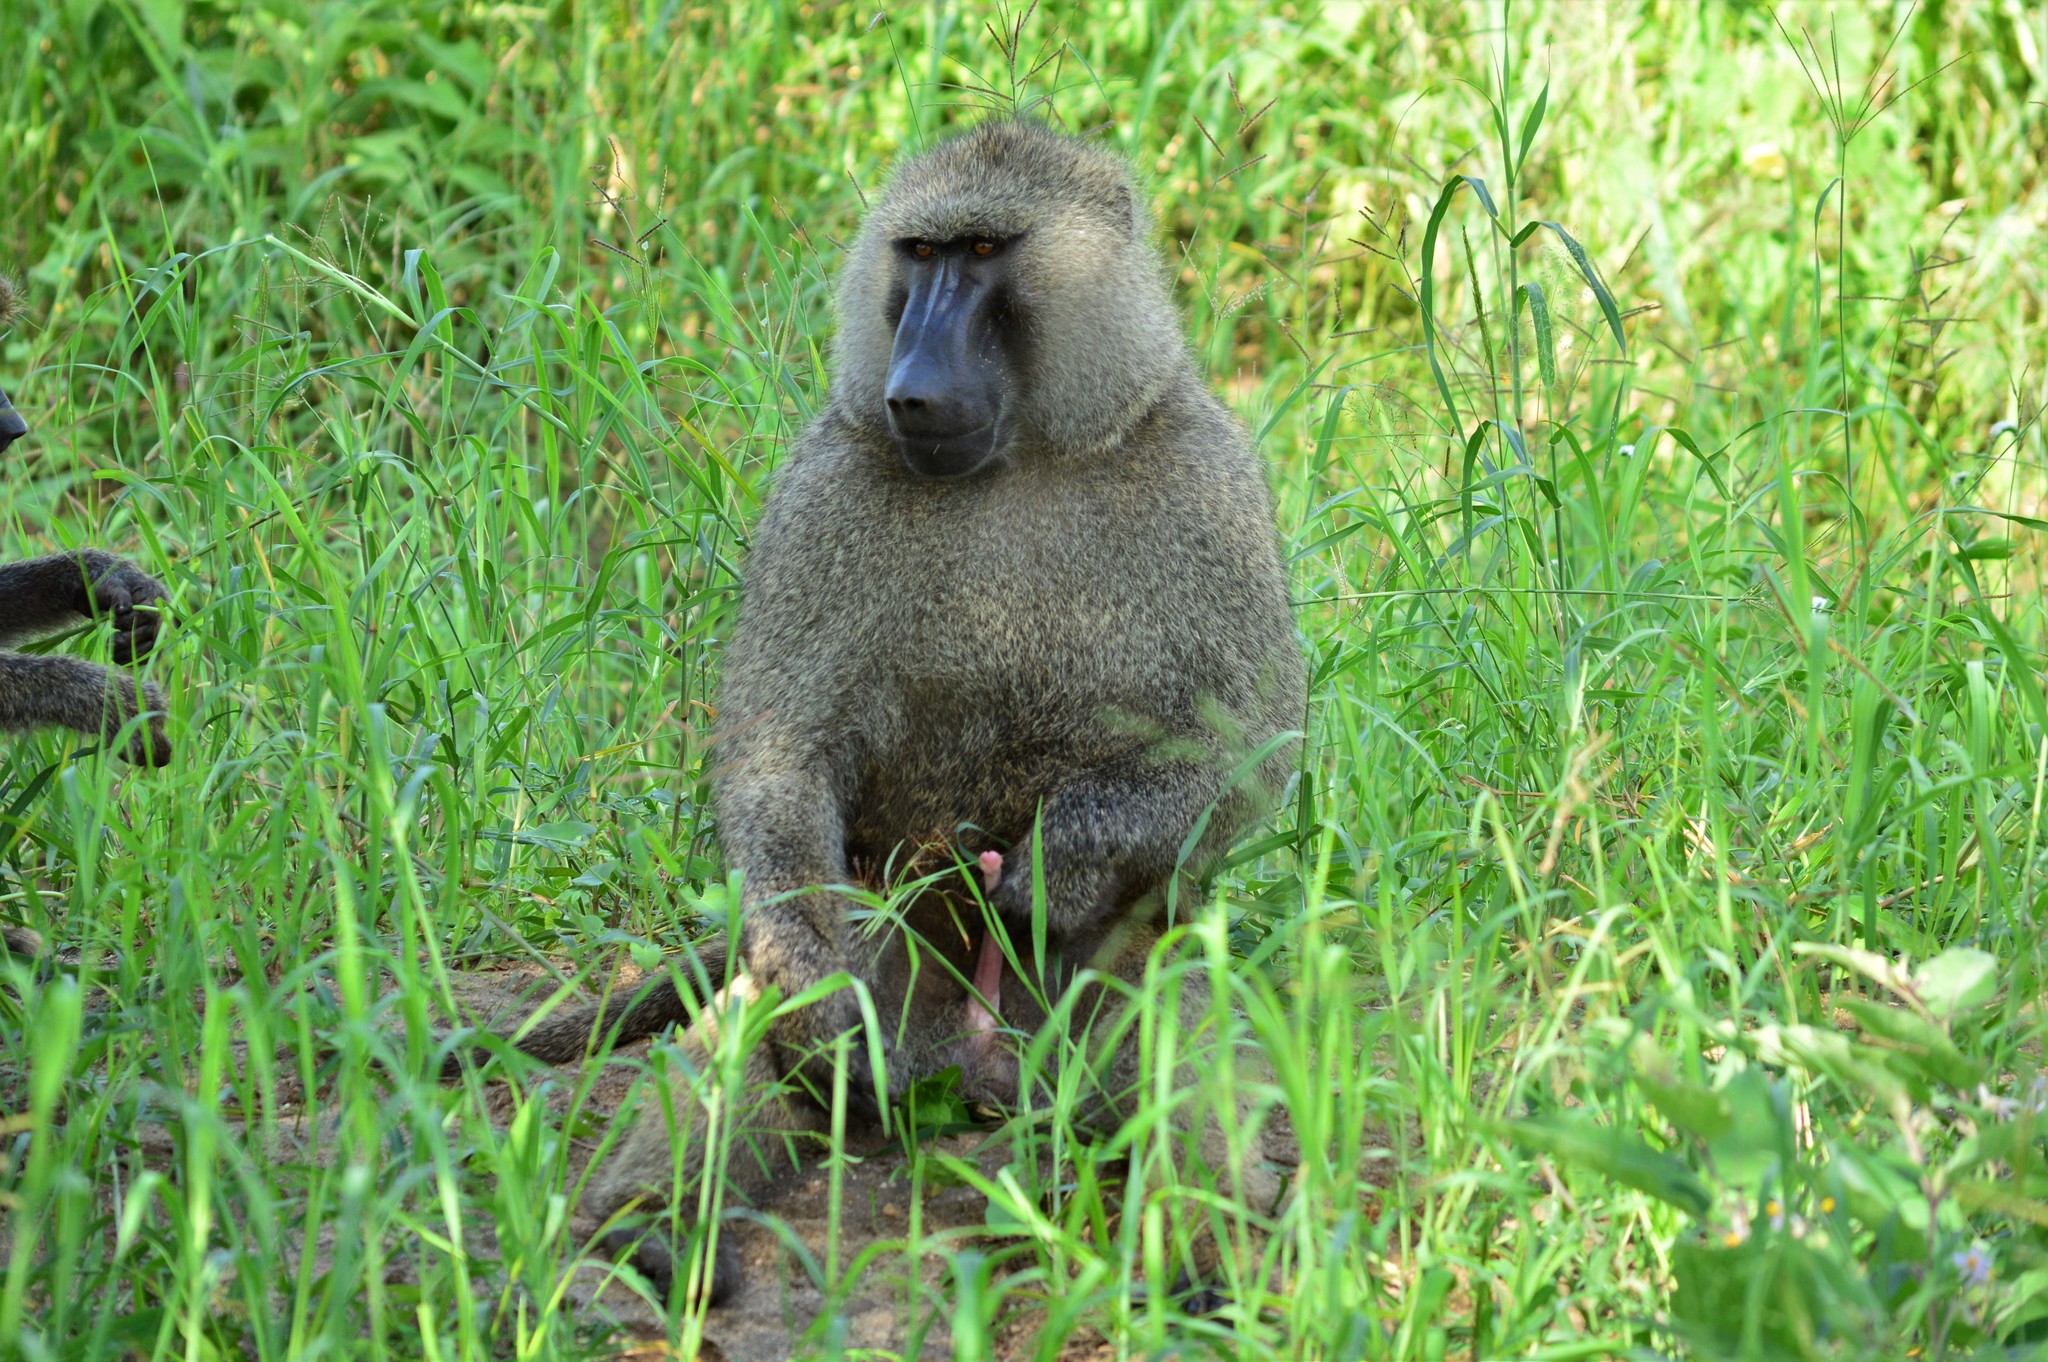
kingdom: Animalia
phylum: Chordata
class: Mammalia
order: Primates
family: Cercopithecidae
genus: Papio
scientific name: Papio anubis
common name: Olive baboon
